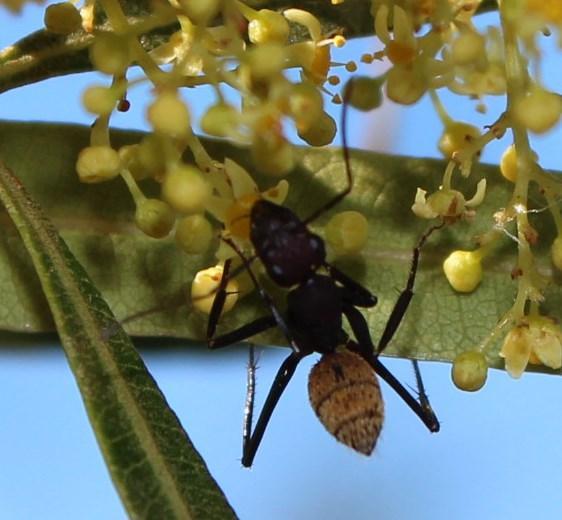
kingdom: Animalia
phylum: Arthropoda
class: Insecta
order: Hymenoptera
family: Formicidae
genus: Camponotus
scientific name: Camponotus fulvopilosus
